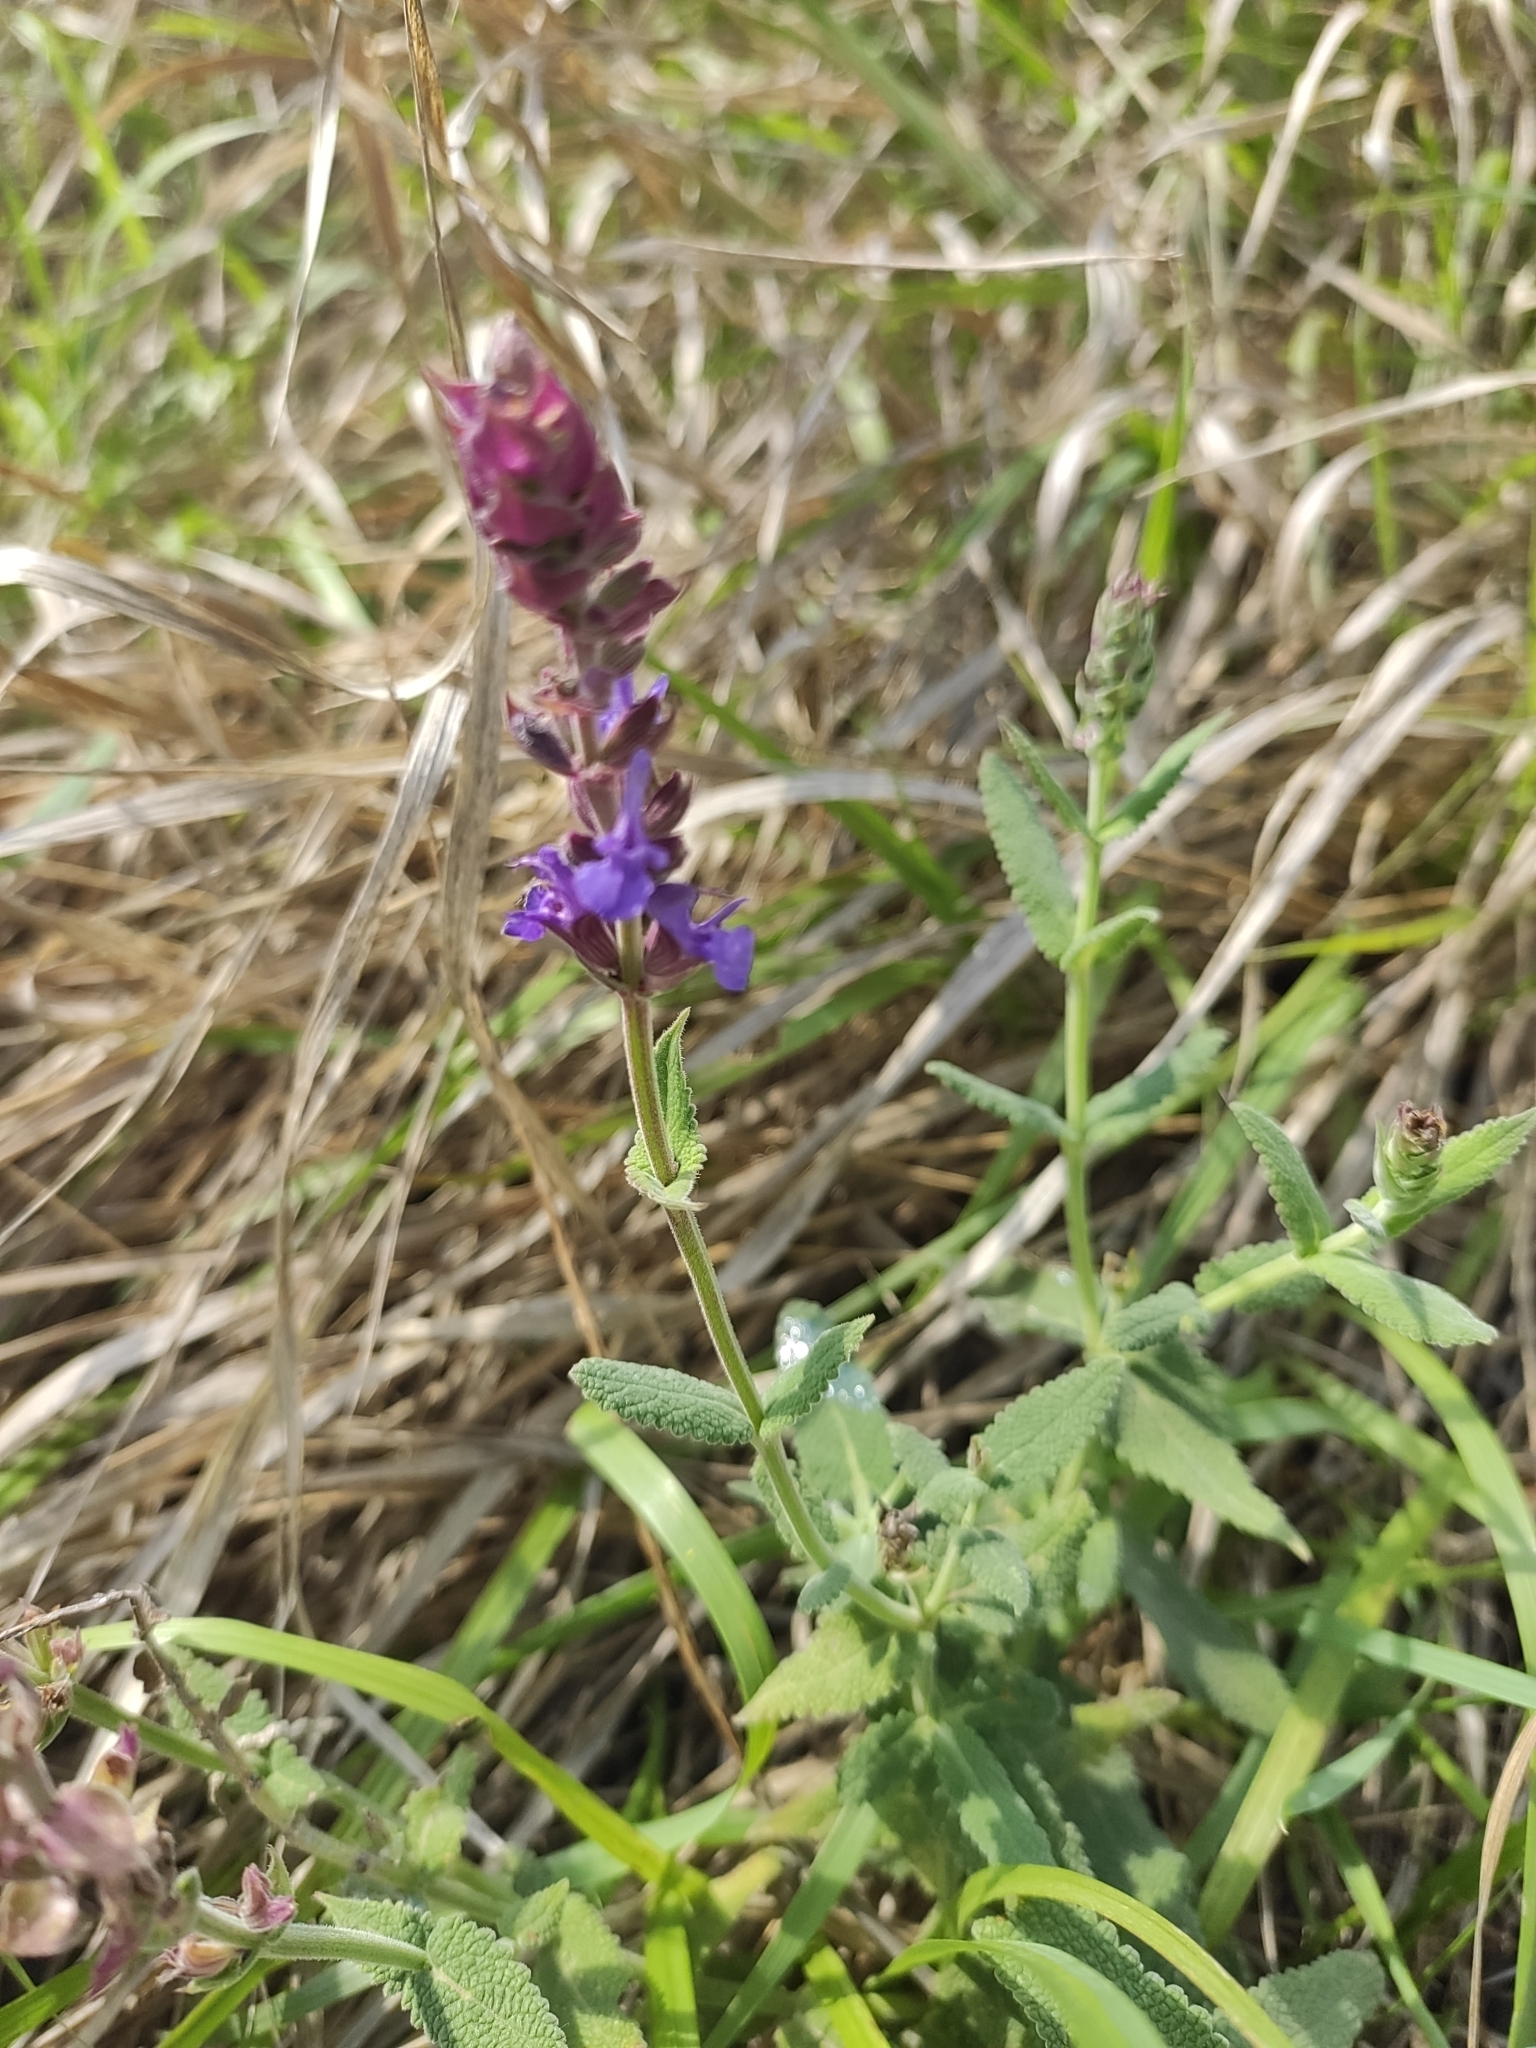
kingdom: Plantae
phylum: Tracheophyta
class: Magnoliopsida
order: Lamiales
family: Lamiaceae
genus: Salvia
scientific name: Salvia nemorosa
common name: Balkan clary
